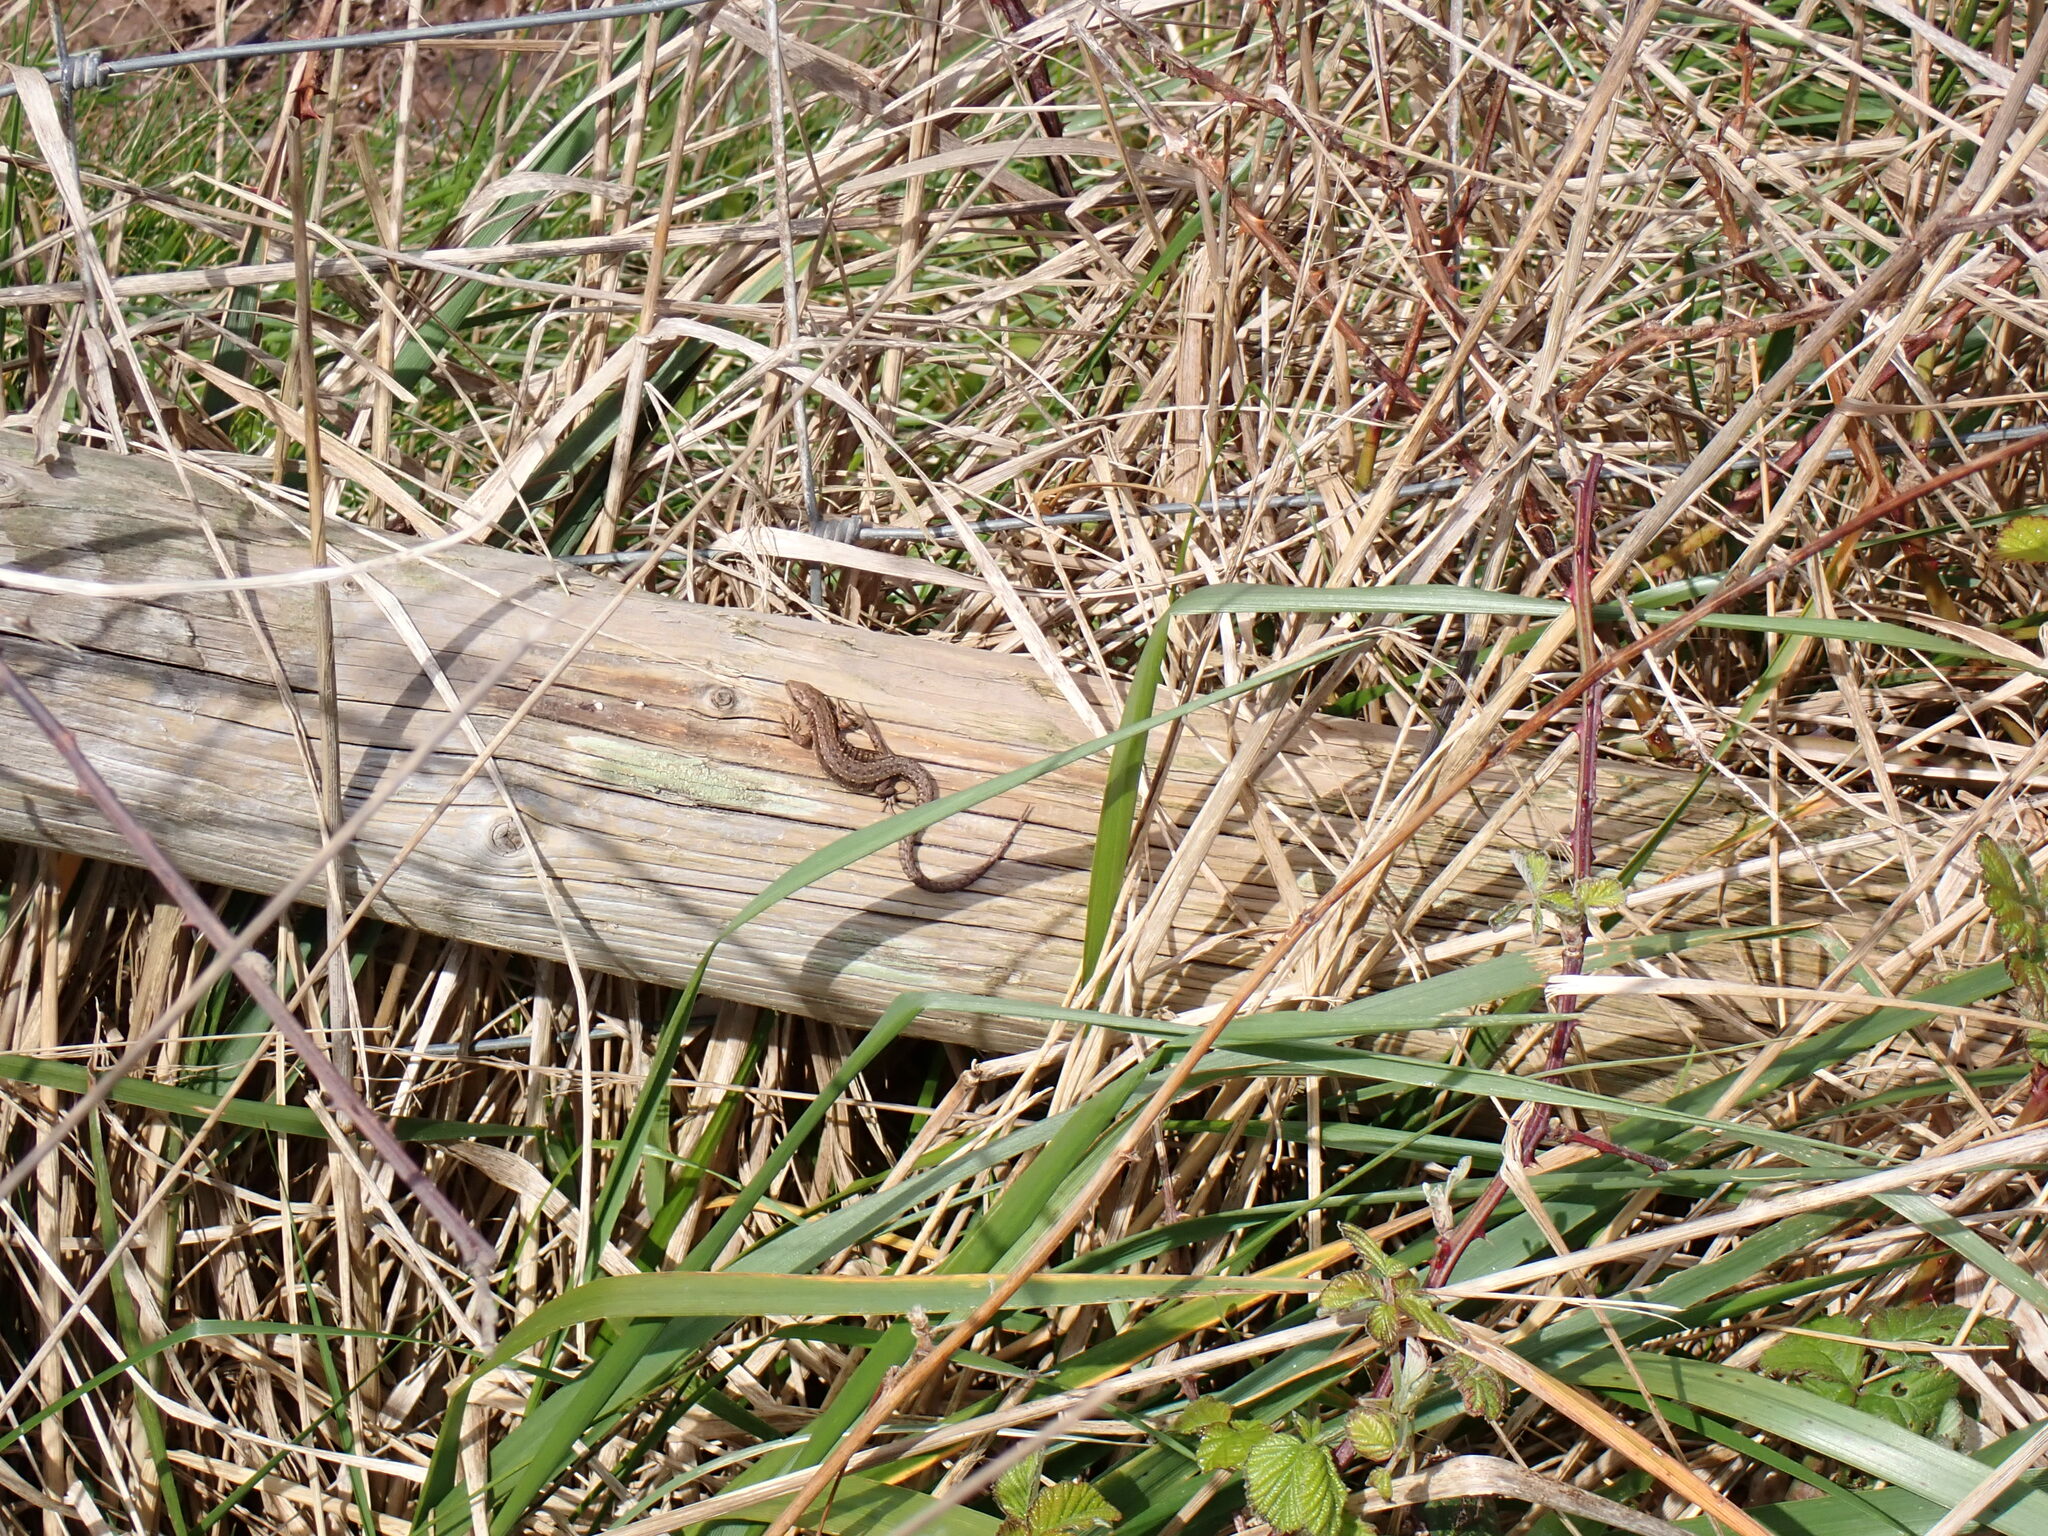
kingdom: Animalia
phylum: Chordata
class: Squamata
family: Lacertidae
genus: Zootoca
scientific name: Zootoca vivipara
